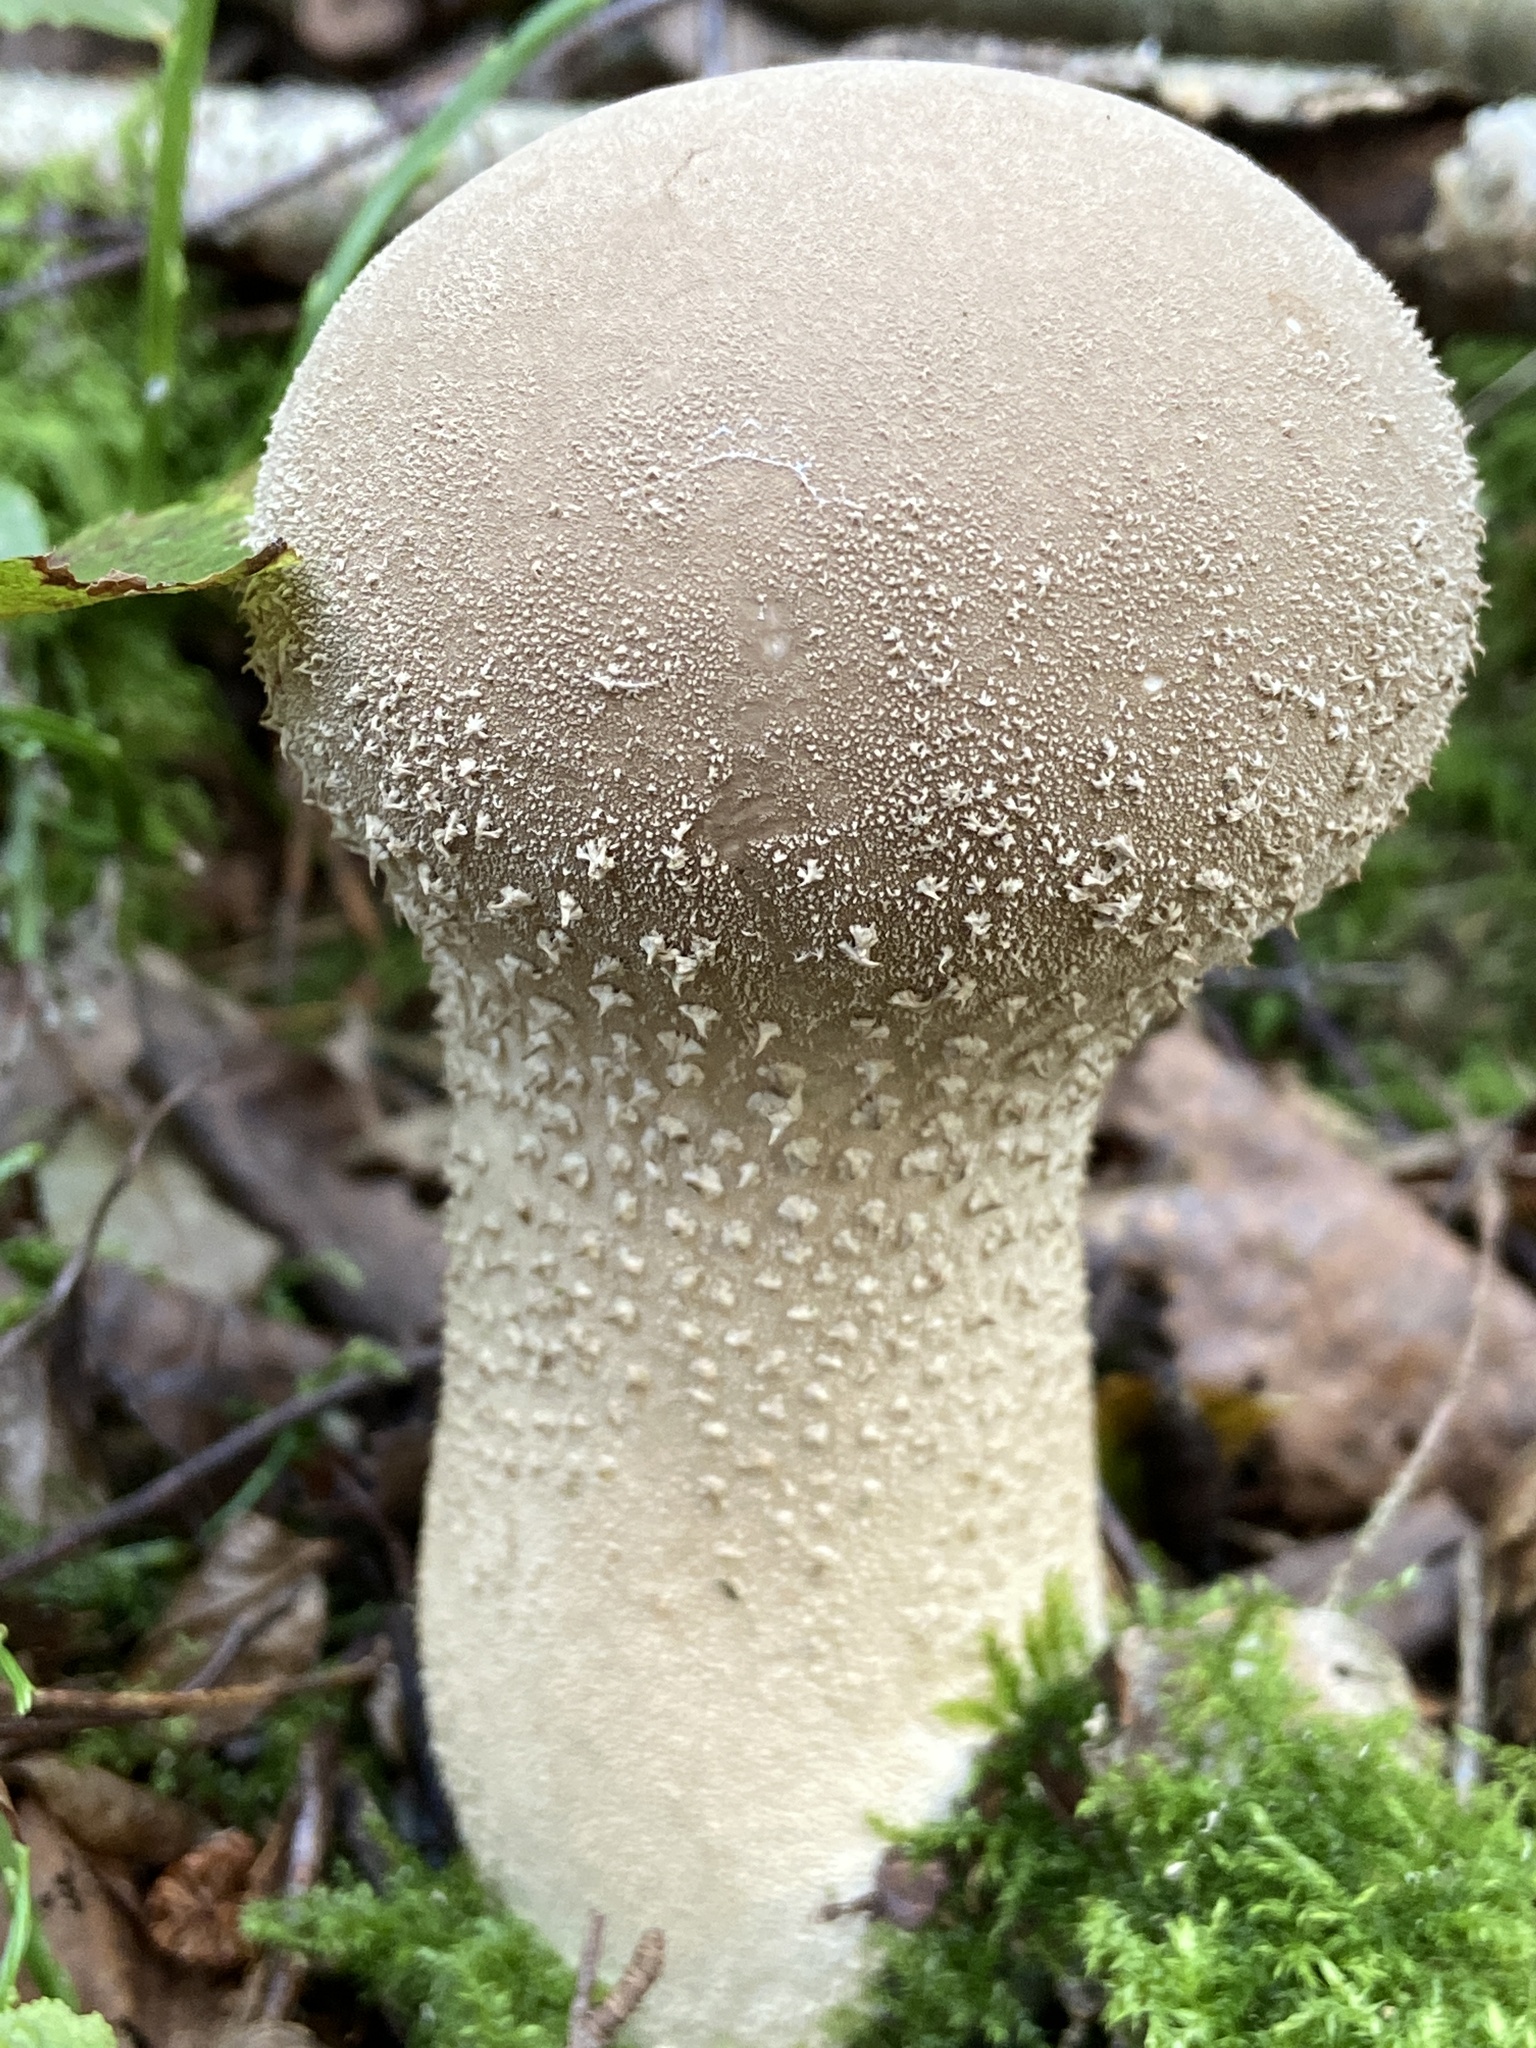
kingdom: Fungi
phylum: Basidiomycota
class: Agaricomycetes
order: Agaricales
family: Lycoperdaceae
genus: Lycoperdon
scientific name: Lycoperdon excipuliforme
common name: Pestle puffball
